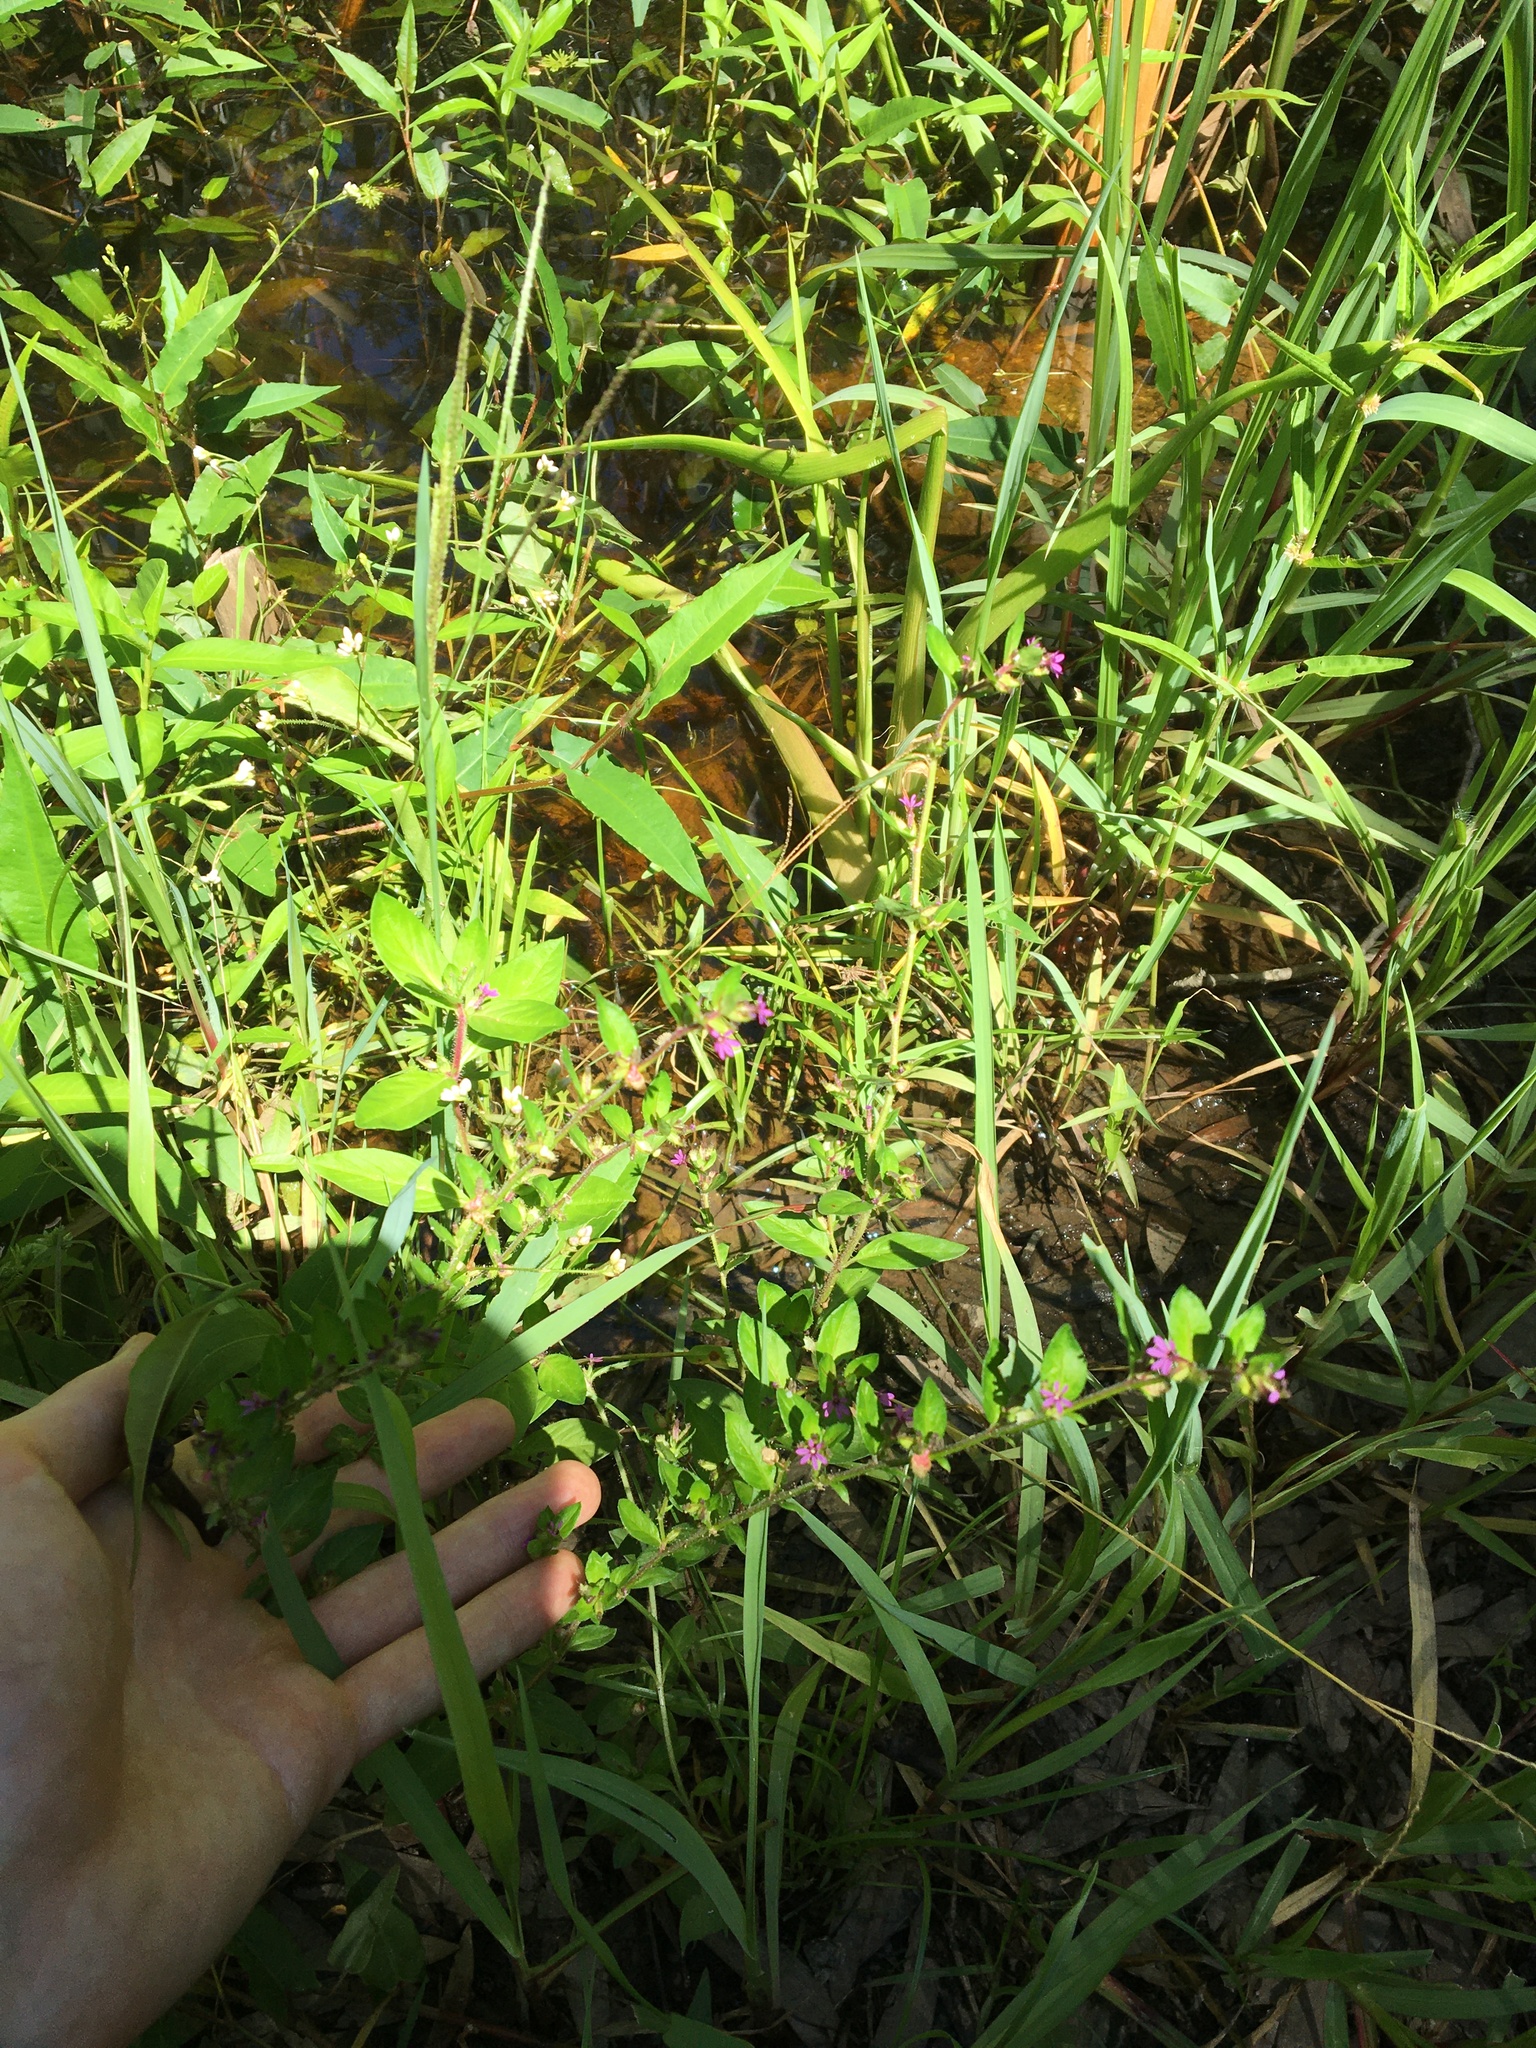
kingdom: Plantae
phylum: Tracheophyta
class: Magnoliopsida
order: Myrtales
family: Lythraceae
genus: Cuphea
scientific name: Cuphea carthagenensis
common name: Colombian waxweed
